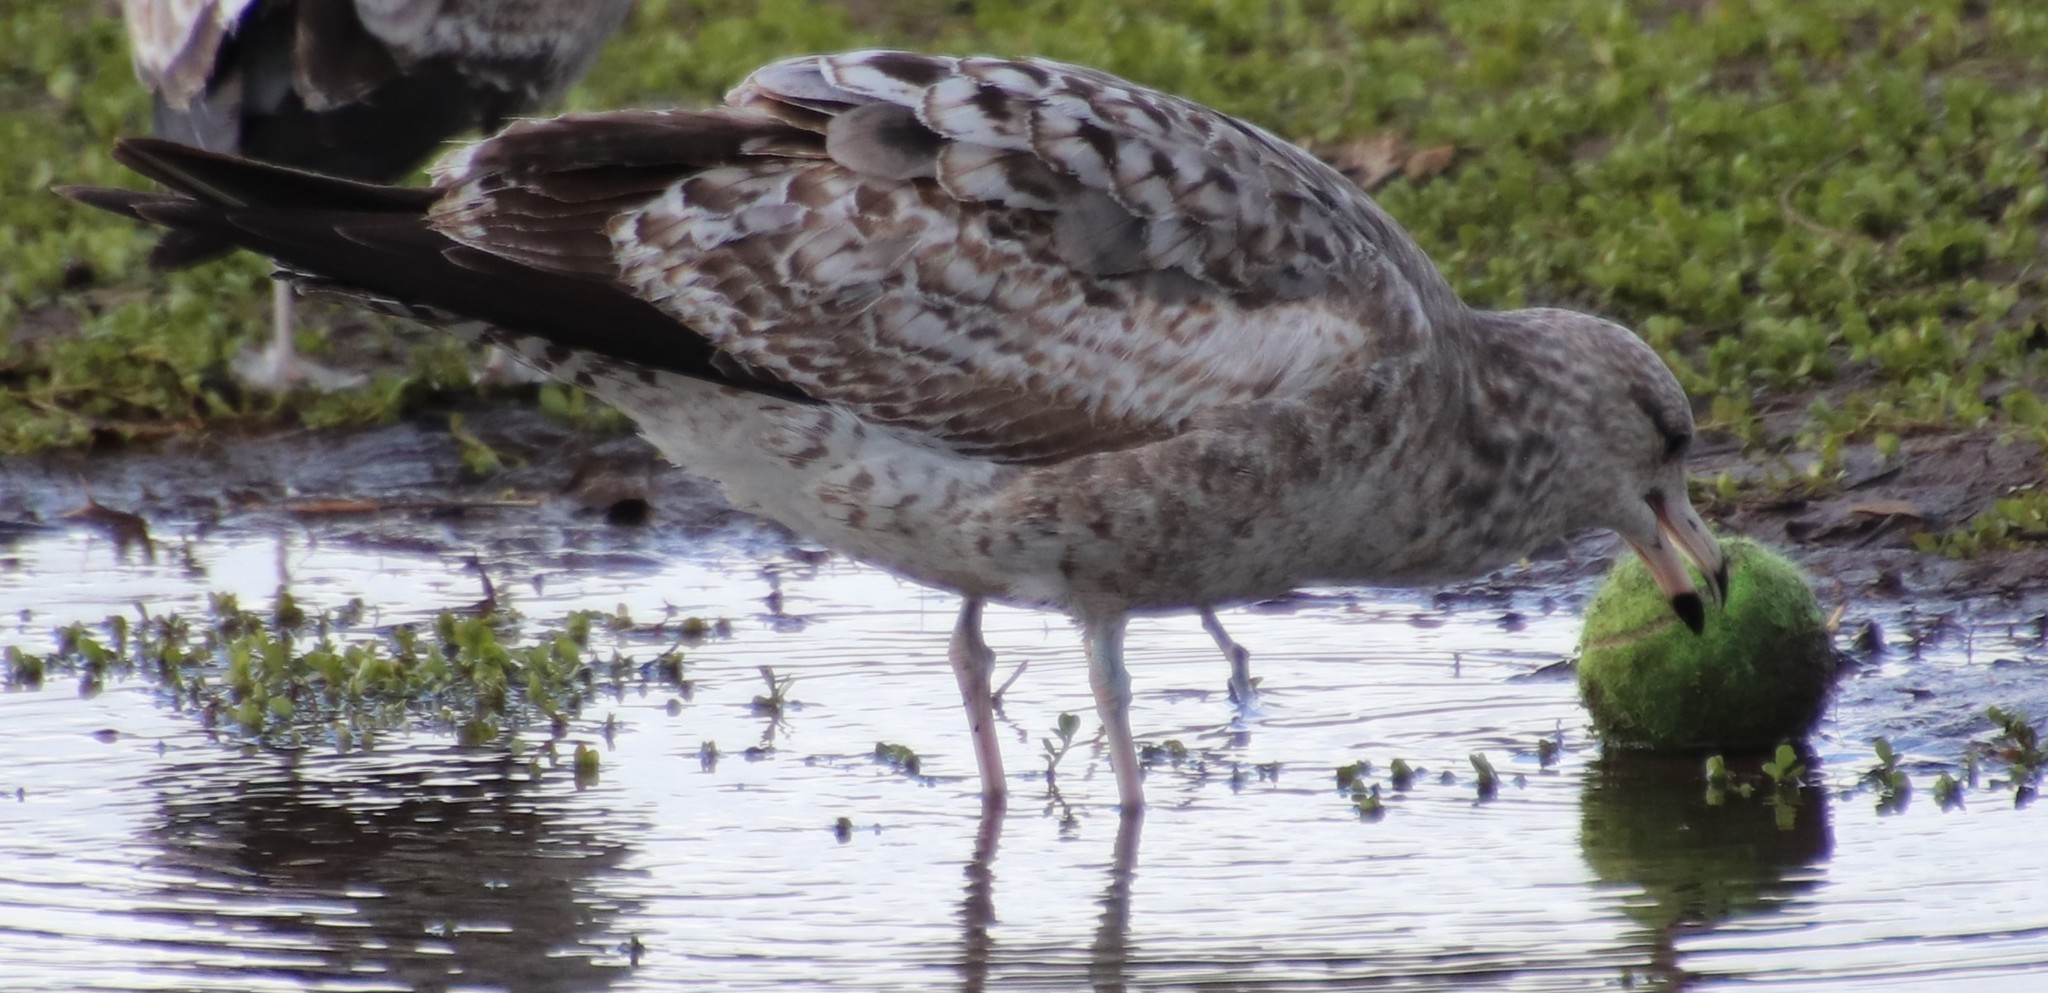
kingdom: Animalia
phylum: Chordata
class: Aves
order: Charadriiformes
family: Laridae
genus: Larus
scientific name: Larus californicus
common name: California gull
